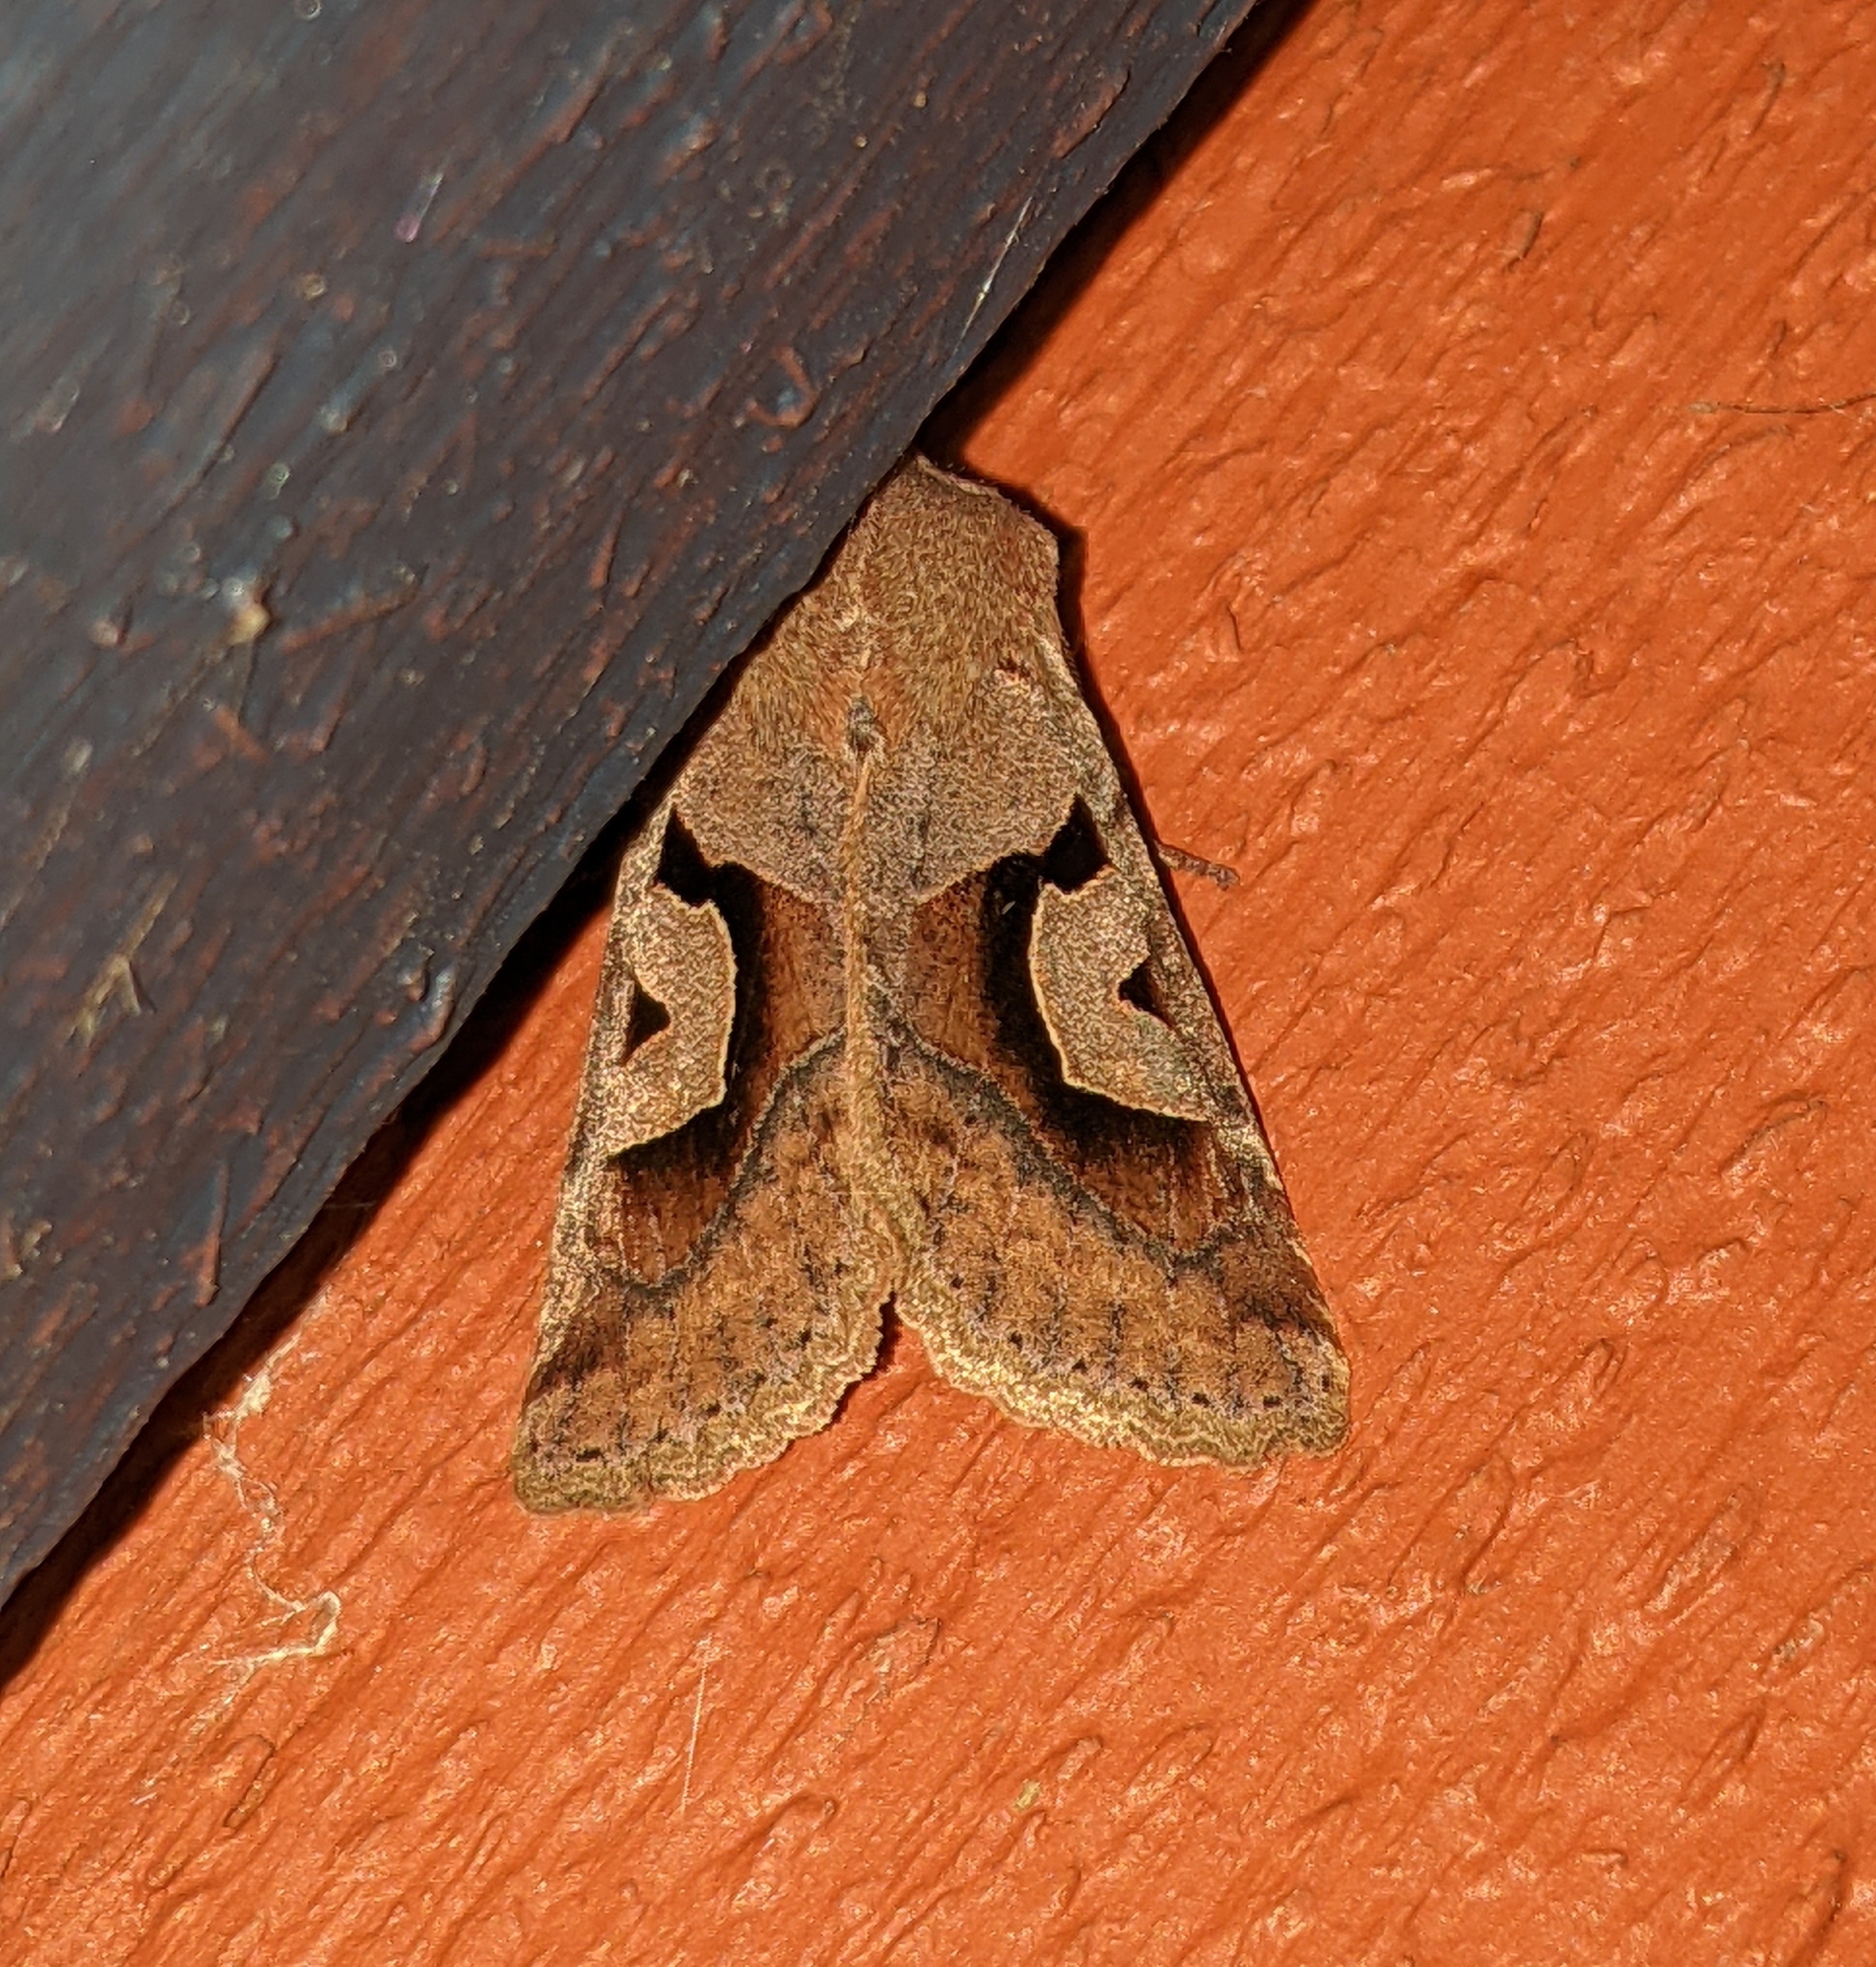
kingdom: Animalia
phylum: Arthropoda
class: Insecta
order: Lepidoptera
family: Noctuidae
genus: Acerra
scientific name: Acerra normalis
